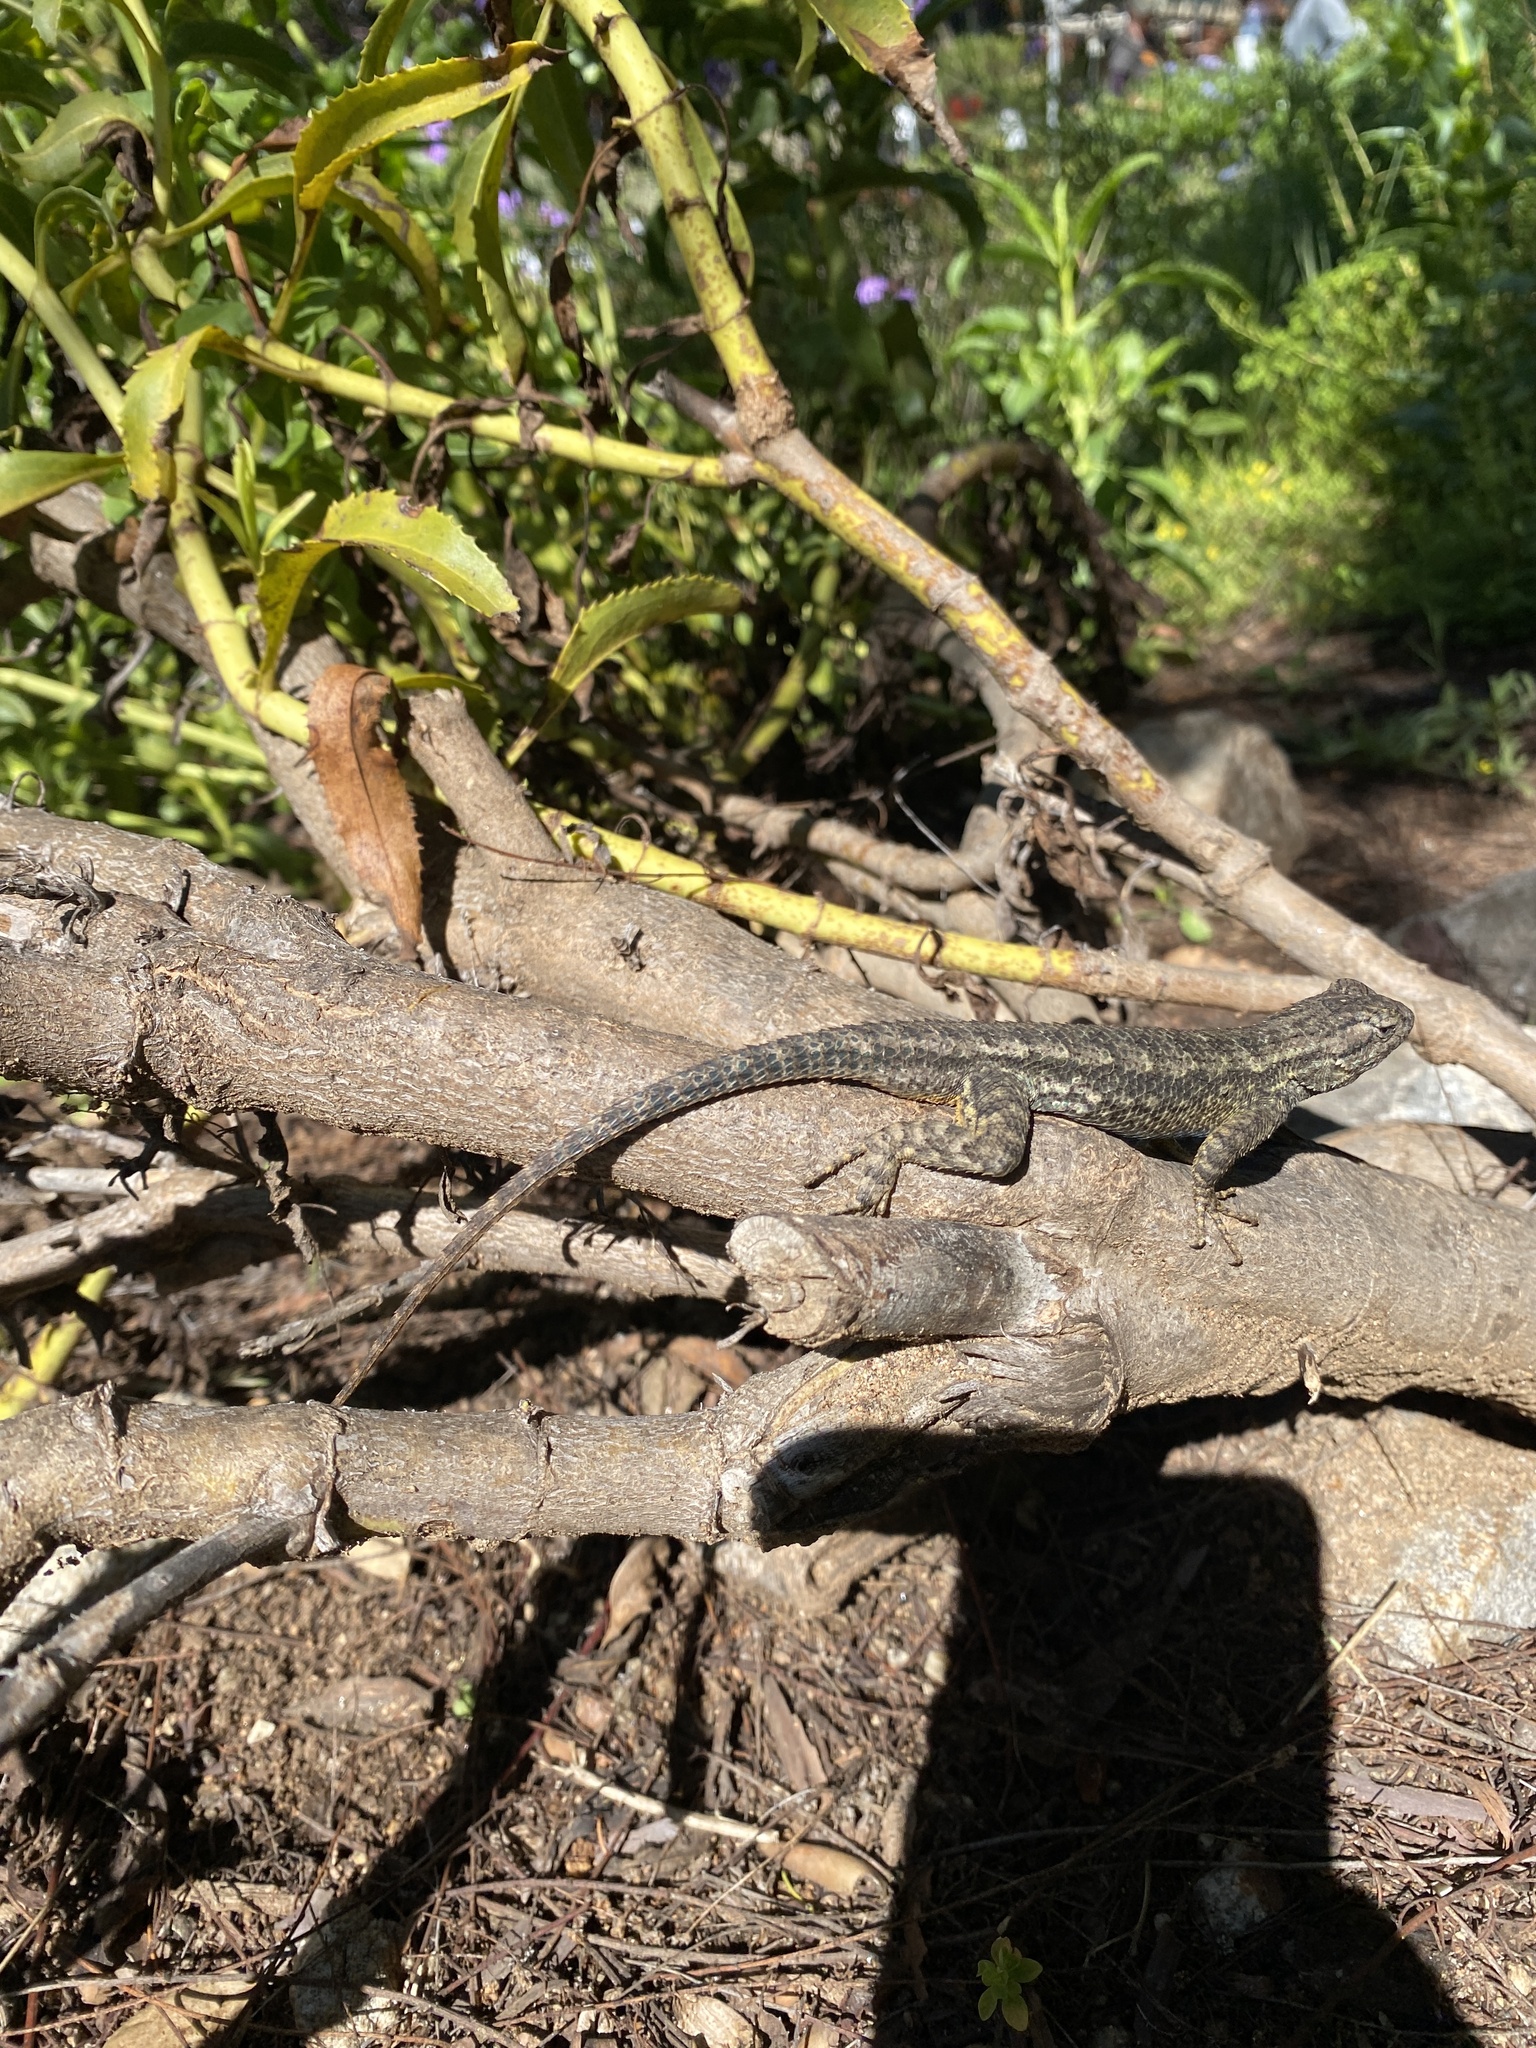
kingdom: Animalia
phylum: Chordata
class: Squamata
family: Phrynosomatidae
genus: Sceloporus
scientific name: Sceloporus occidentalis
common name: Western fence lizard
